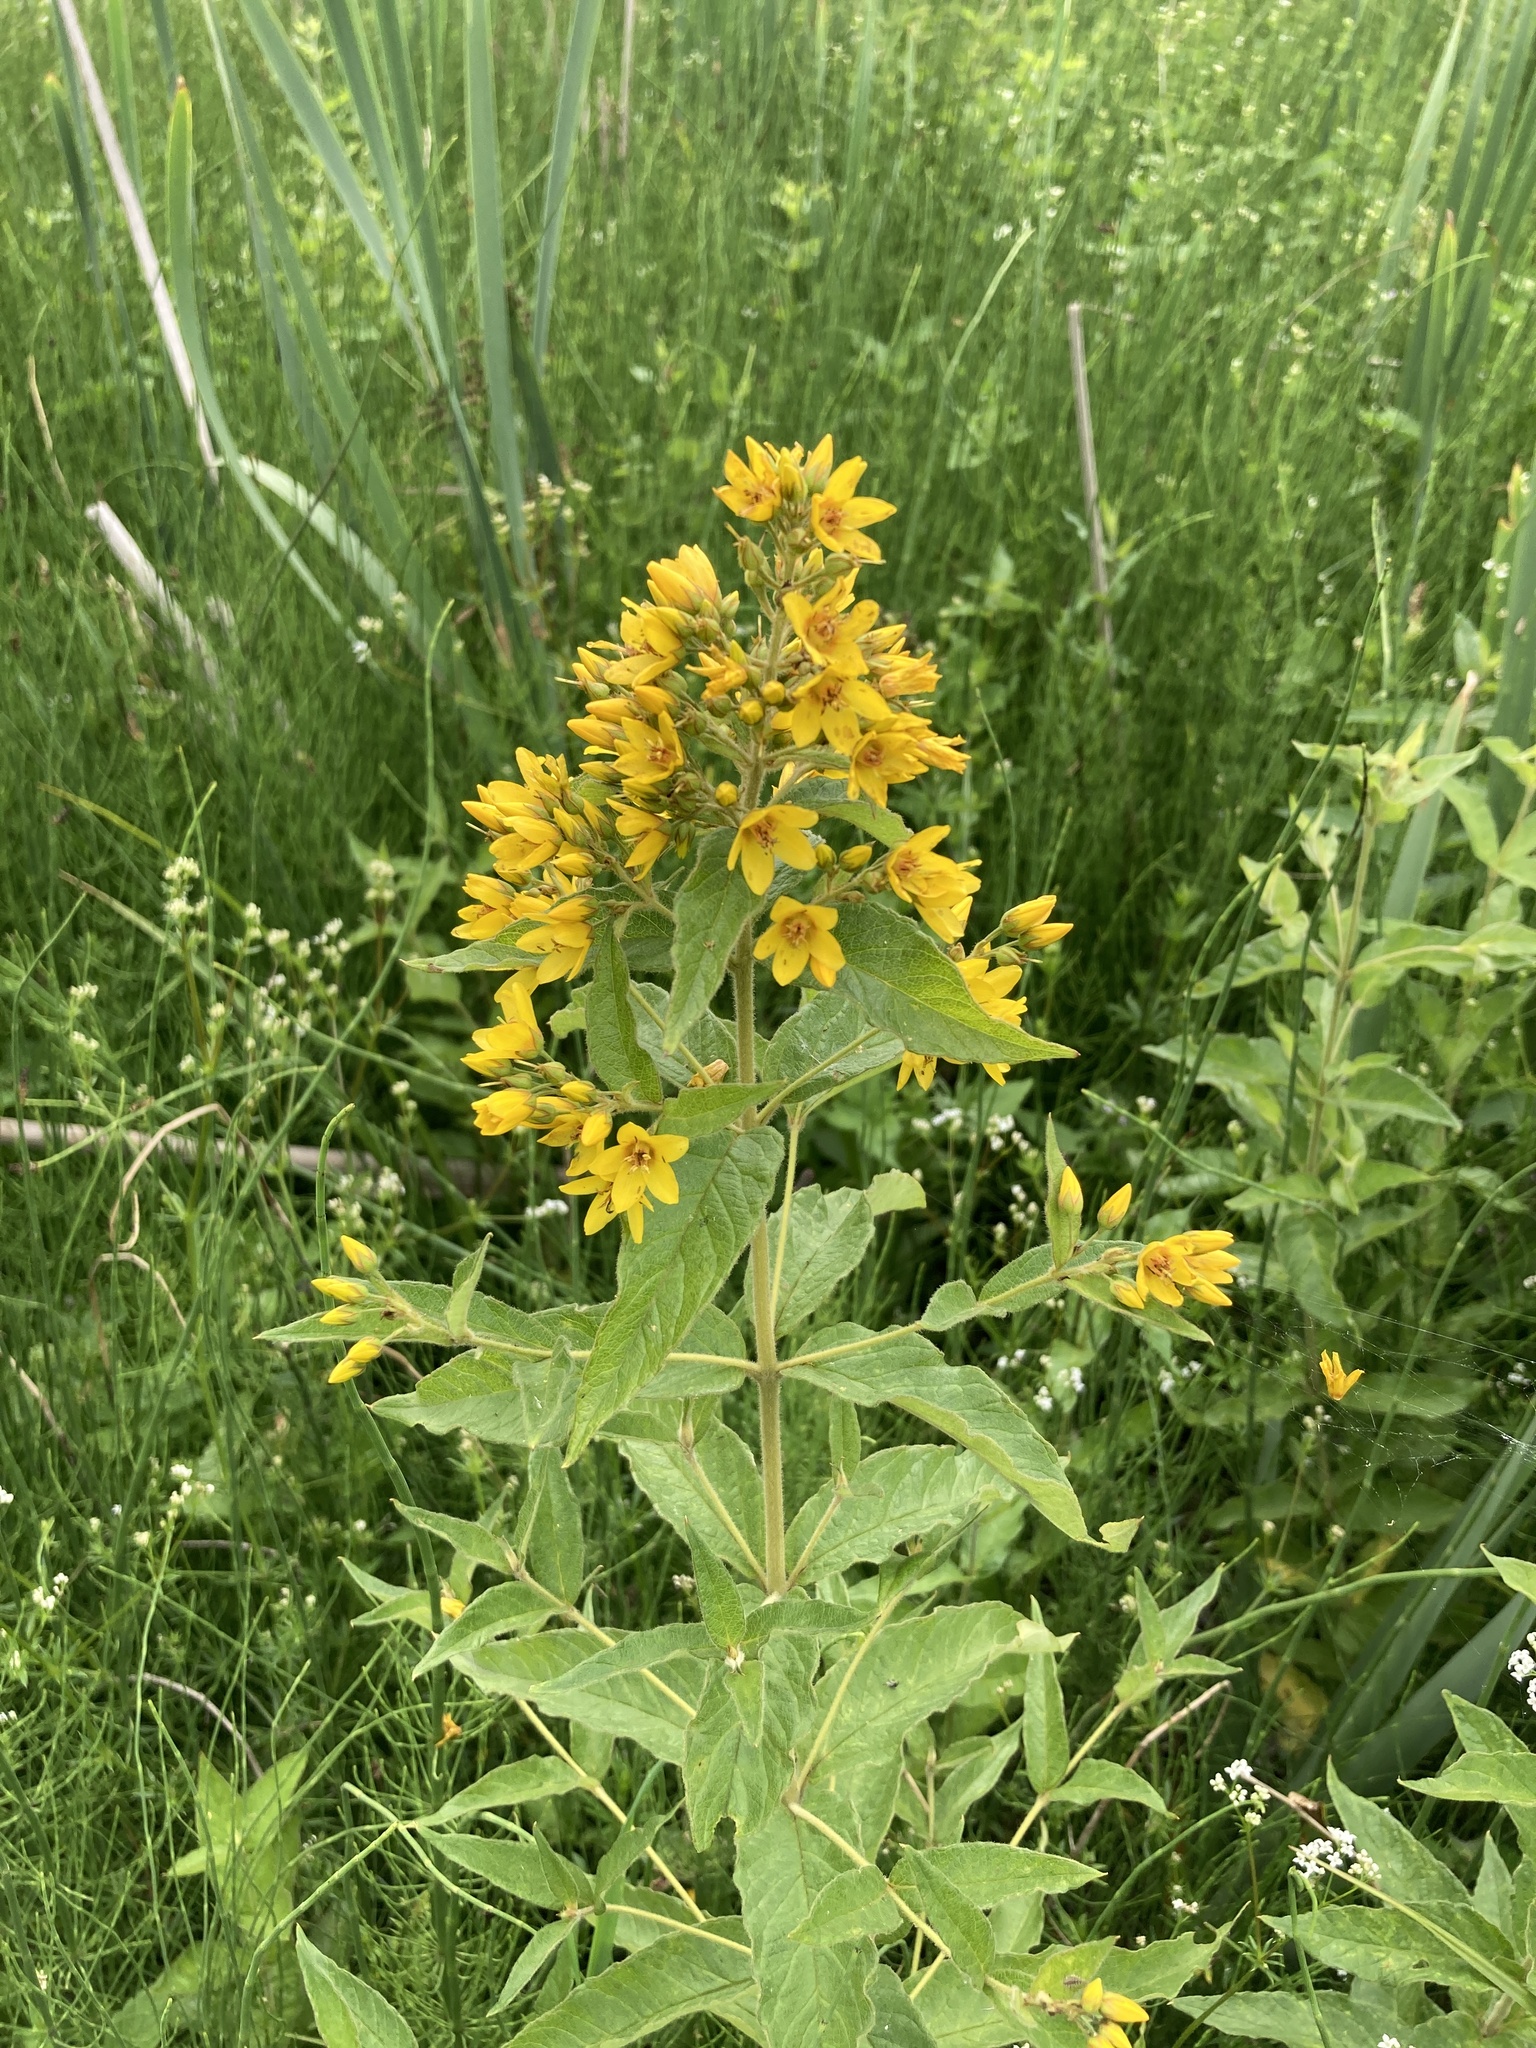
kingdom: Plantae
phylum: Tracheophyta
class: Magnoliopsida
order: Ericales
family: Primulaceae
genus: Lysimachia
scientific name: Lysimachia vulgaris
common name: Yellow loosestrife
